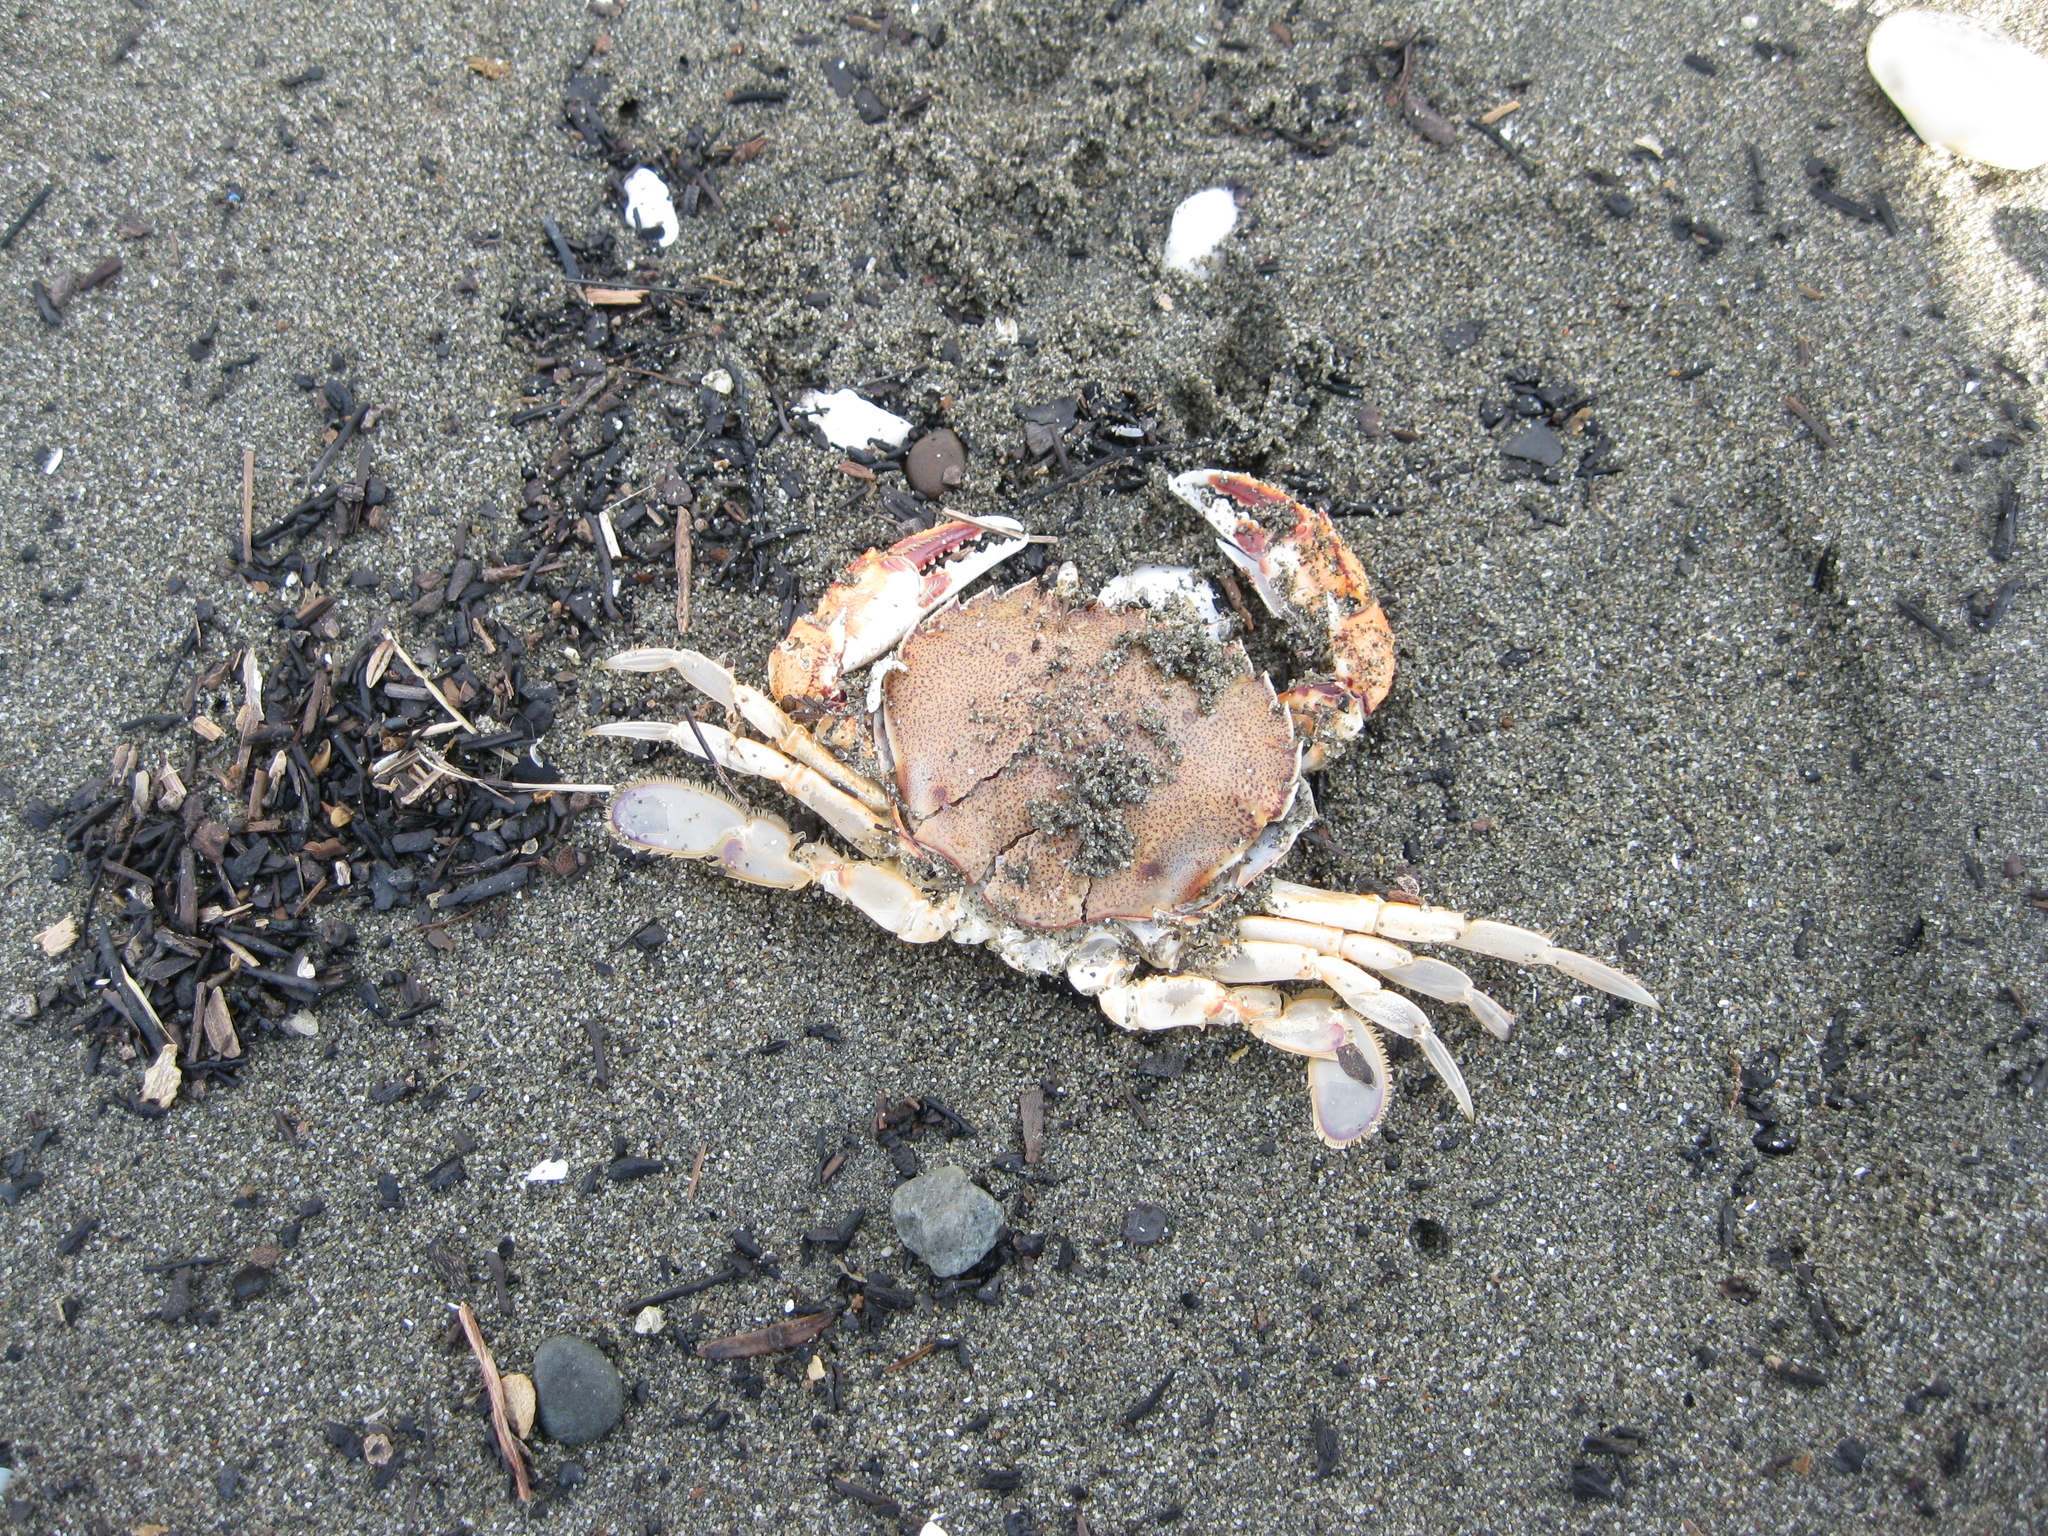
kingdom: Animalia
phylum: Arthropoda
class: Malacostraca
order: Decapoda
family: Ovalipidae
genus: Ovalipes
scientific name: Ovalipes catharus
